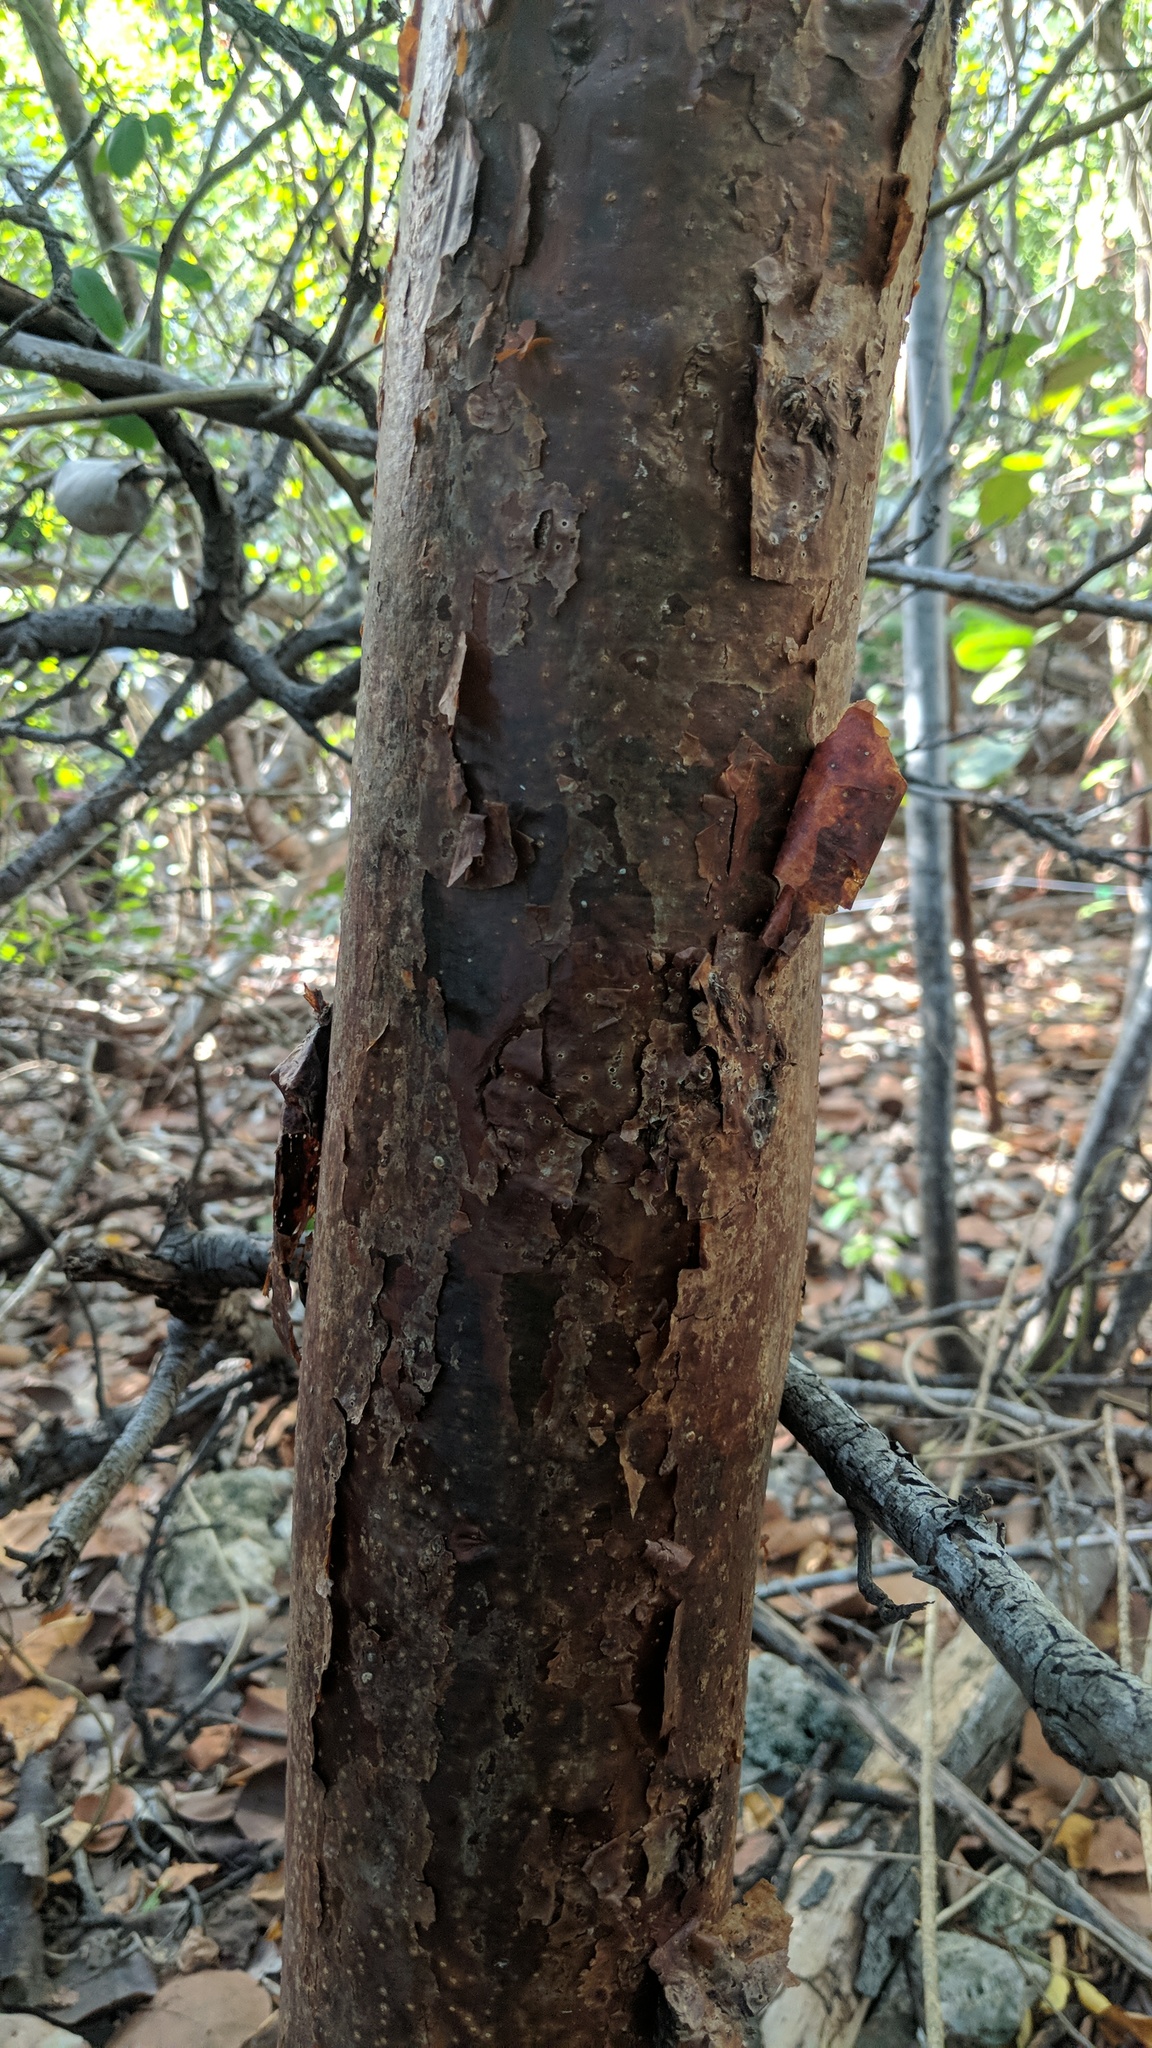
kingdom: Plantae
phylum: Tracheophyta
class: Magnoliopsida
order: Sapindales
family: Burseraceae
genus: Bursera
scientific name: Bursera simaruba
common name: Turpentine tree
